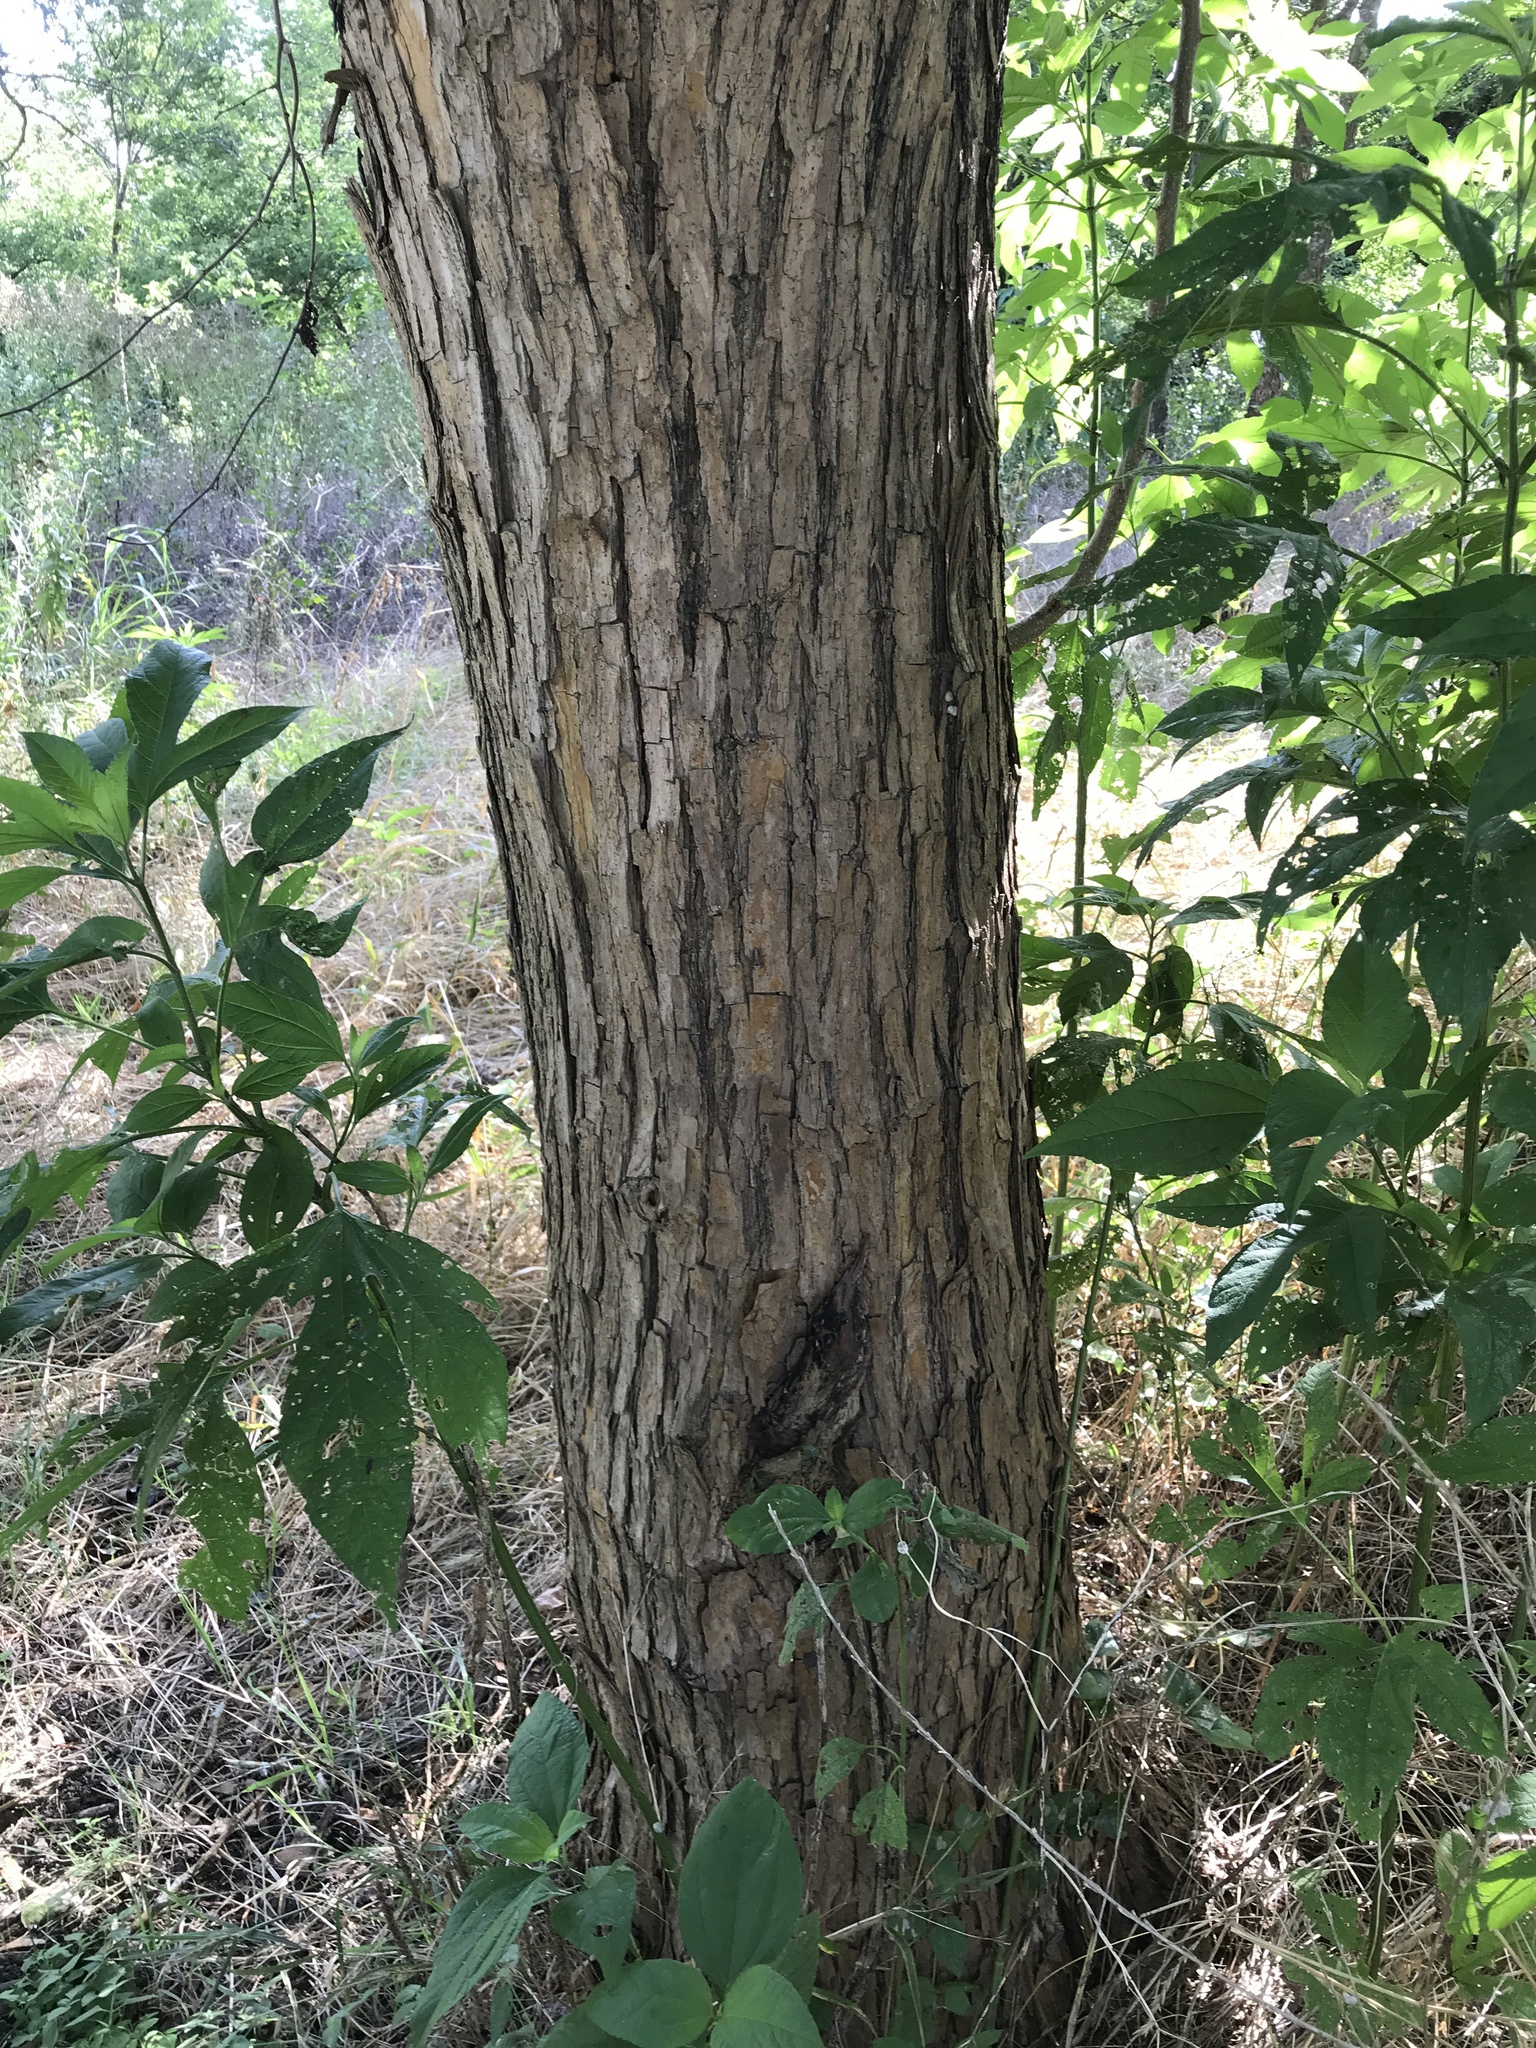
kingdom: Plantae
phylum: Tracheophyta
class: Magnoliopsida
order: Rosales
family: Moraceae
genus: Maclura
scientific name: Maclura pomifera
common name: Osage-orange
